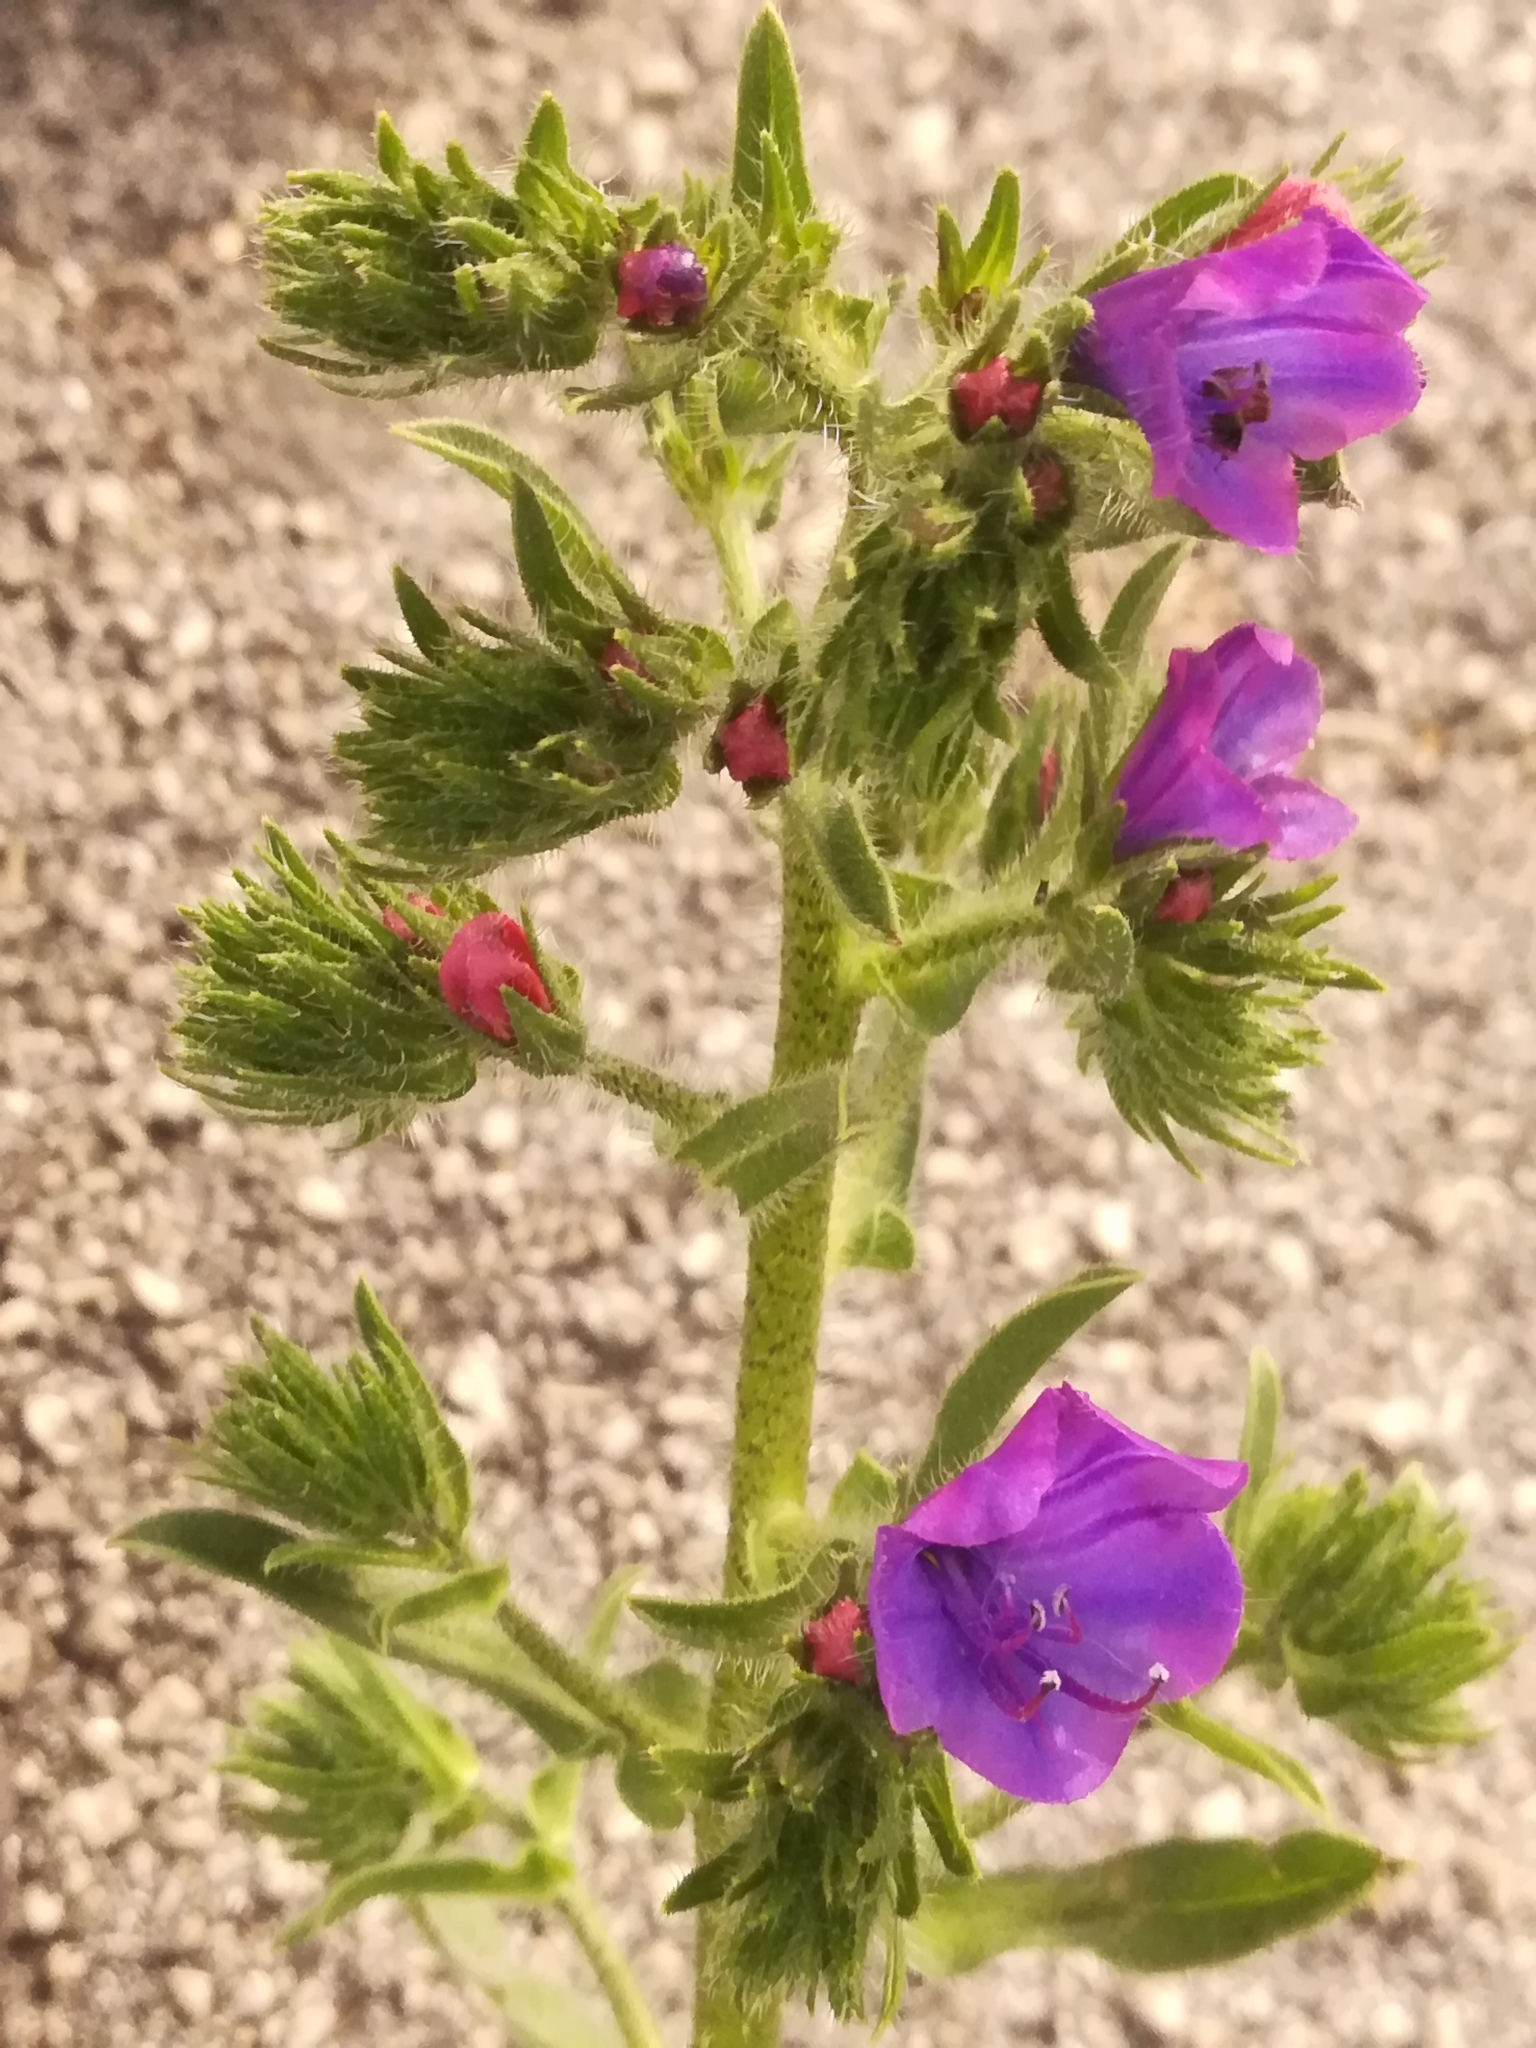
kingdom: Plantae
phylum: Tracheophyta
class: Magnoliopsida
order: Boraginales
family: Boraginaceae
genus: Echium
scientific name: Echium plantagineum
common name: Purple viper's-bugloss
